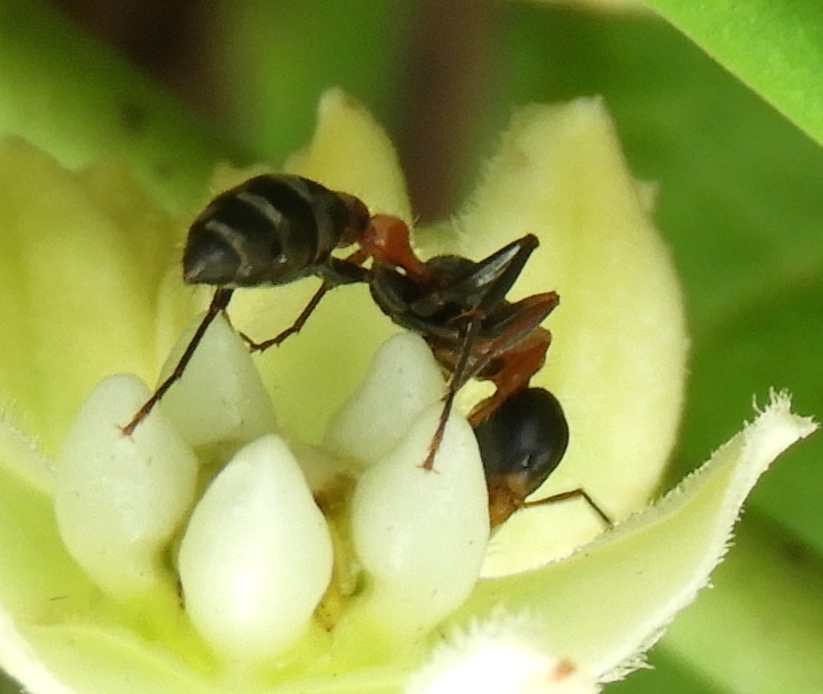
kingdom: Animalia
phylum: Arthropoda
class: Insecta
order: Hymenoptera
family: Formicidae
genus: Pseudomyrmex
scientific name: Pseudomyrmex gracilis
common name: Graceful twig ant
